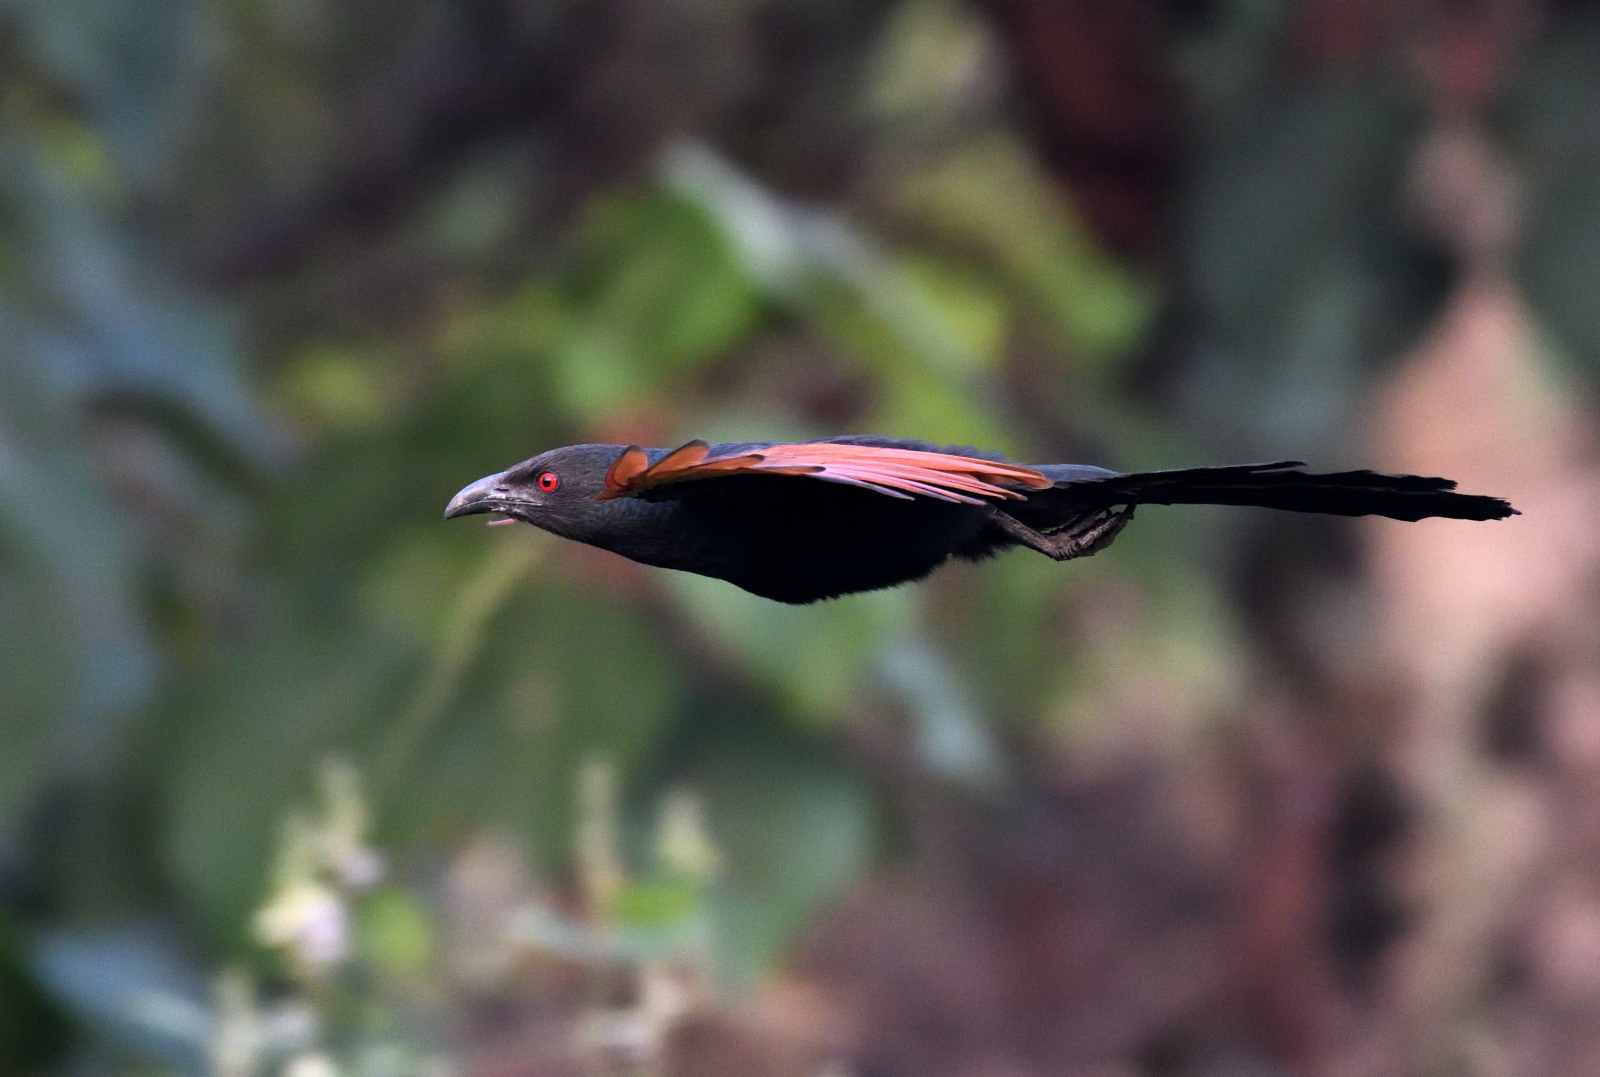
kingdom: Animalia
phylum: Chordata
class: Aves
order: Cuculiformes
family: Cuculidae
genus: Centropus
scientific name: Centropus sinensis
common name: Greater coucal
